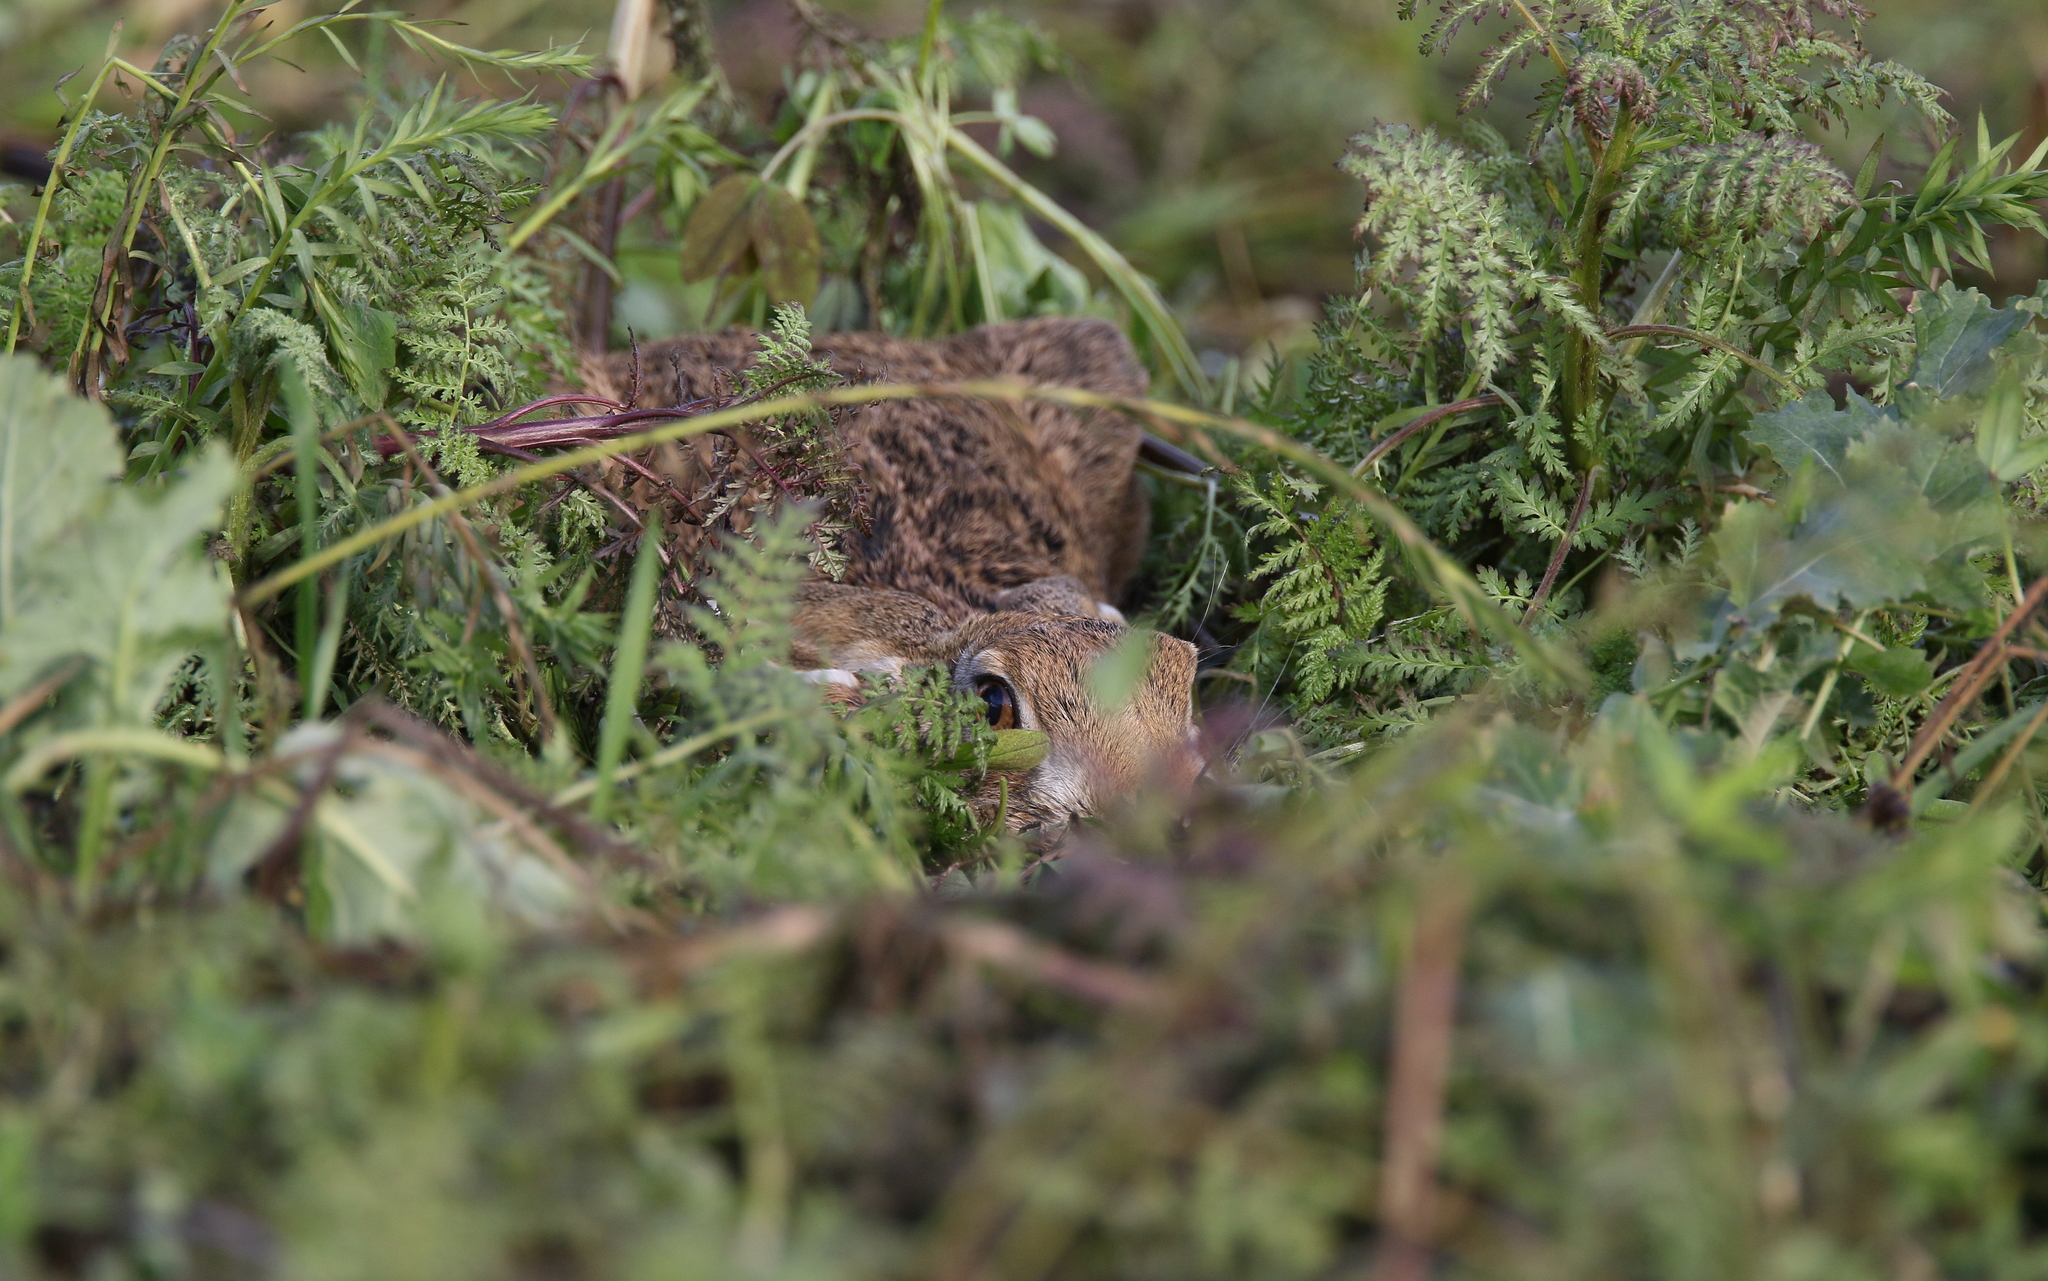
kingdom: Animalia
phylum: Chordata
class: Mammalia
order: Lagomorpha
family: Leporidae
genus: Lepus
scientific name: Lepus europaeus
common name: European hare
